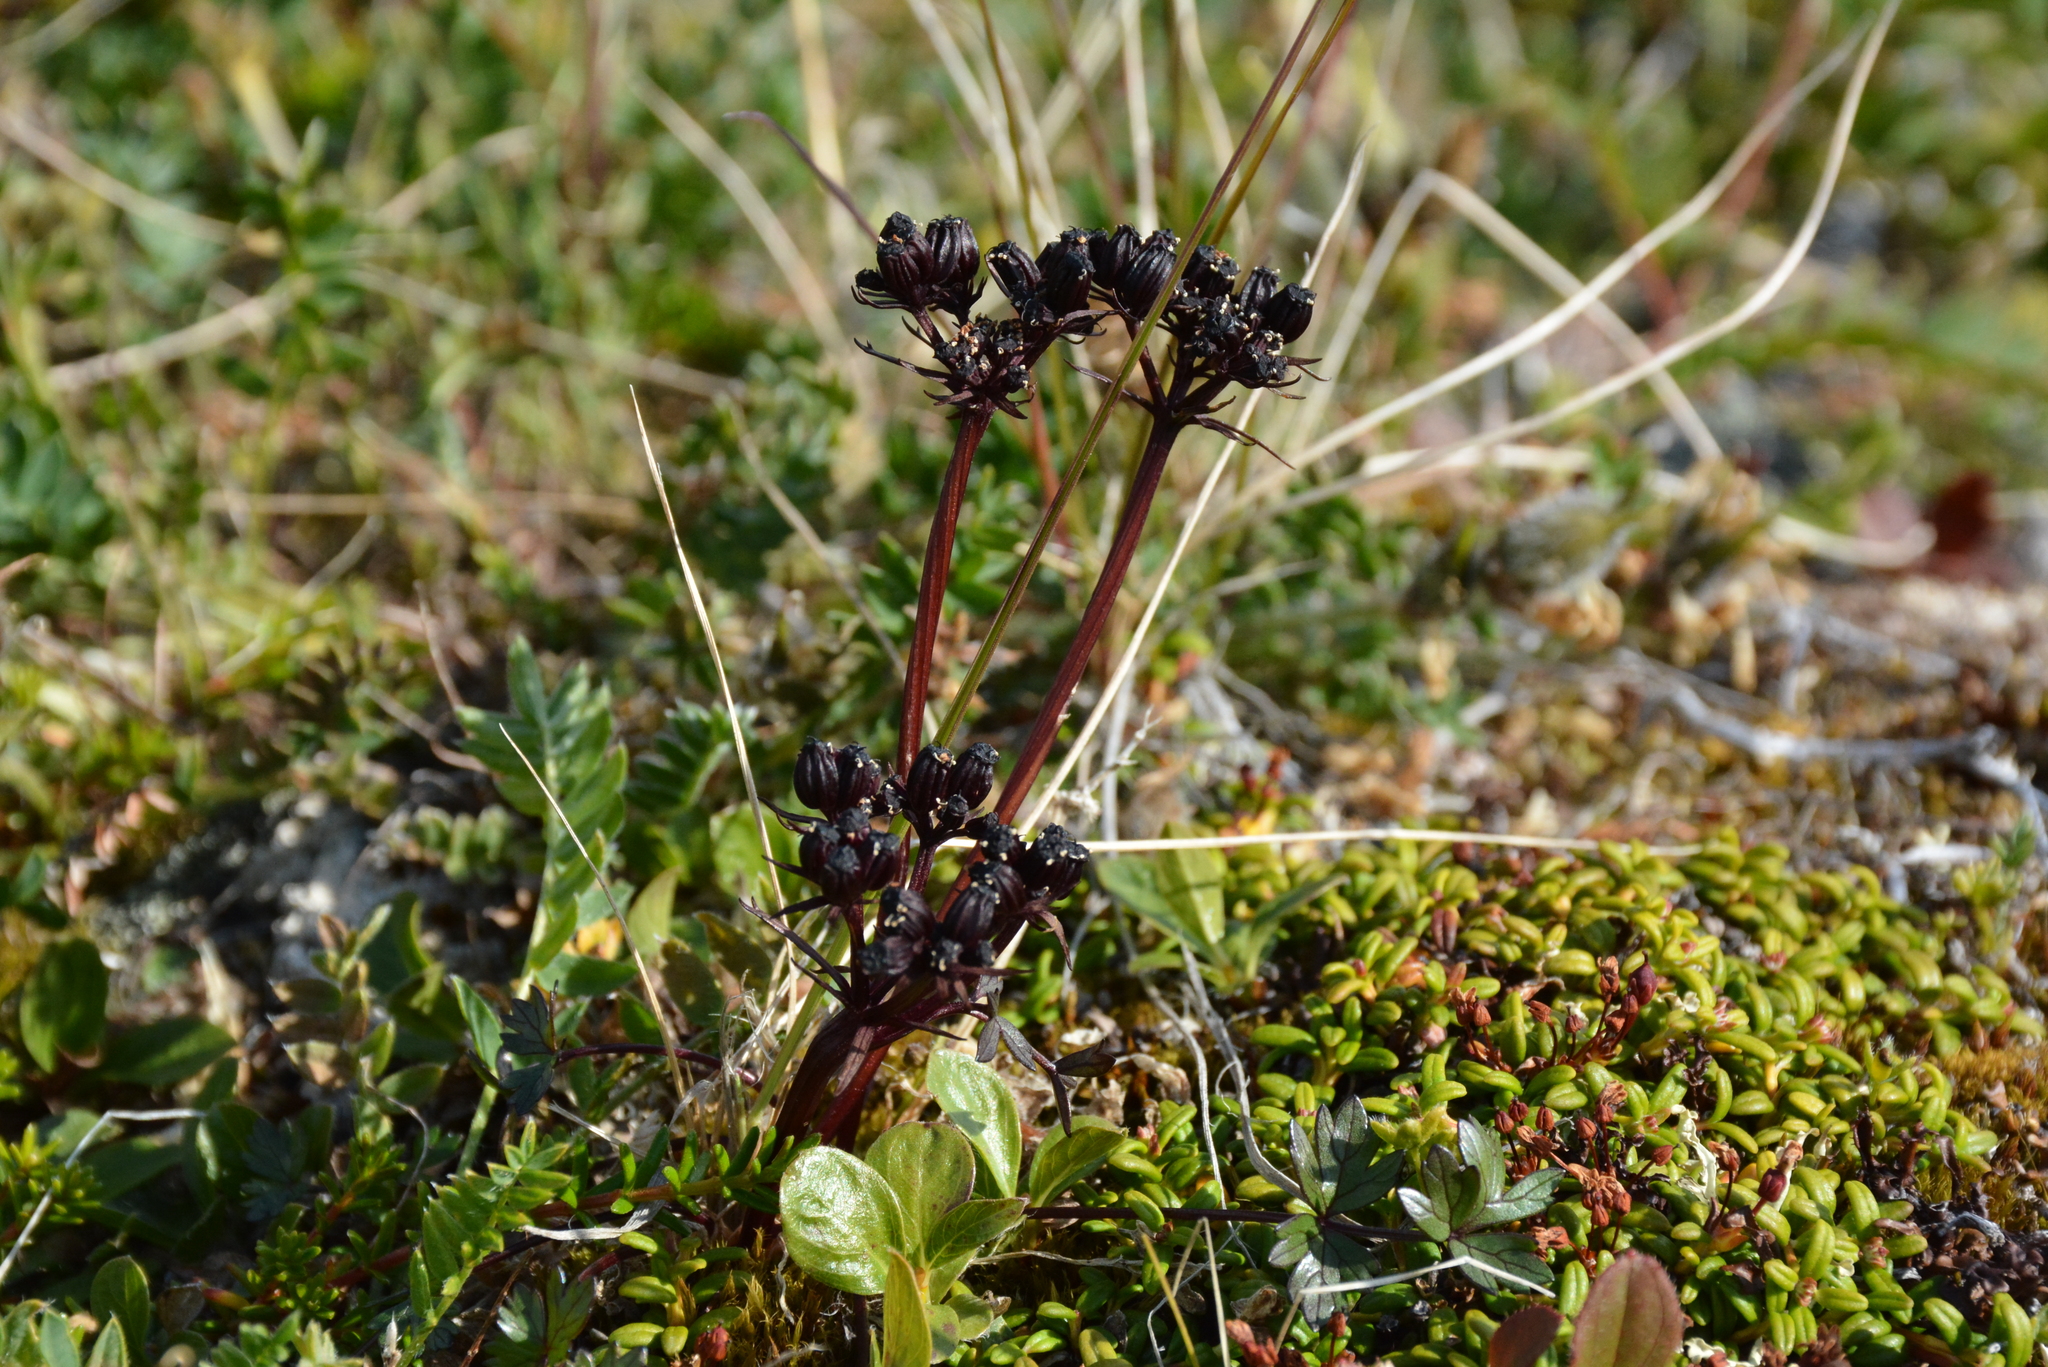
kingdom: Plantae
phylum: Tracheophyta
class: Magnoliopsida
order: Apiales
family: Apiaceae
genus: Orumbella
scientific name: Orumbella macounii
